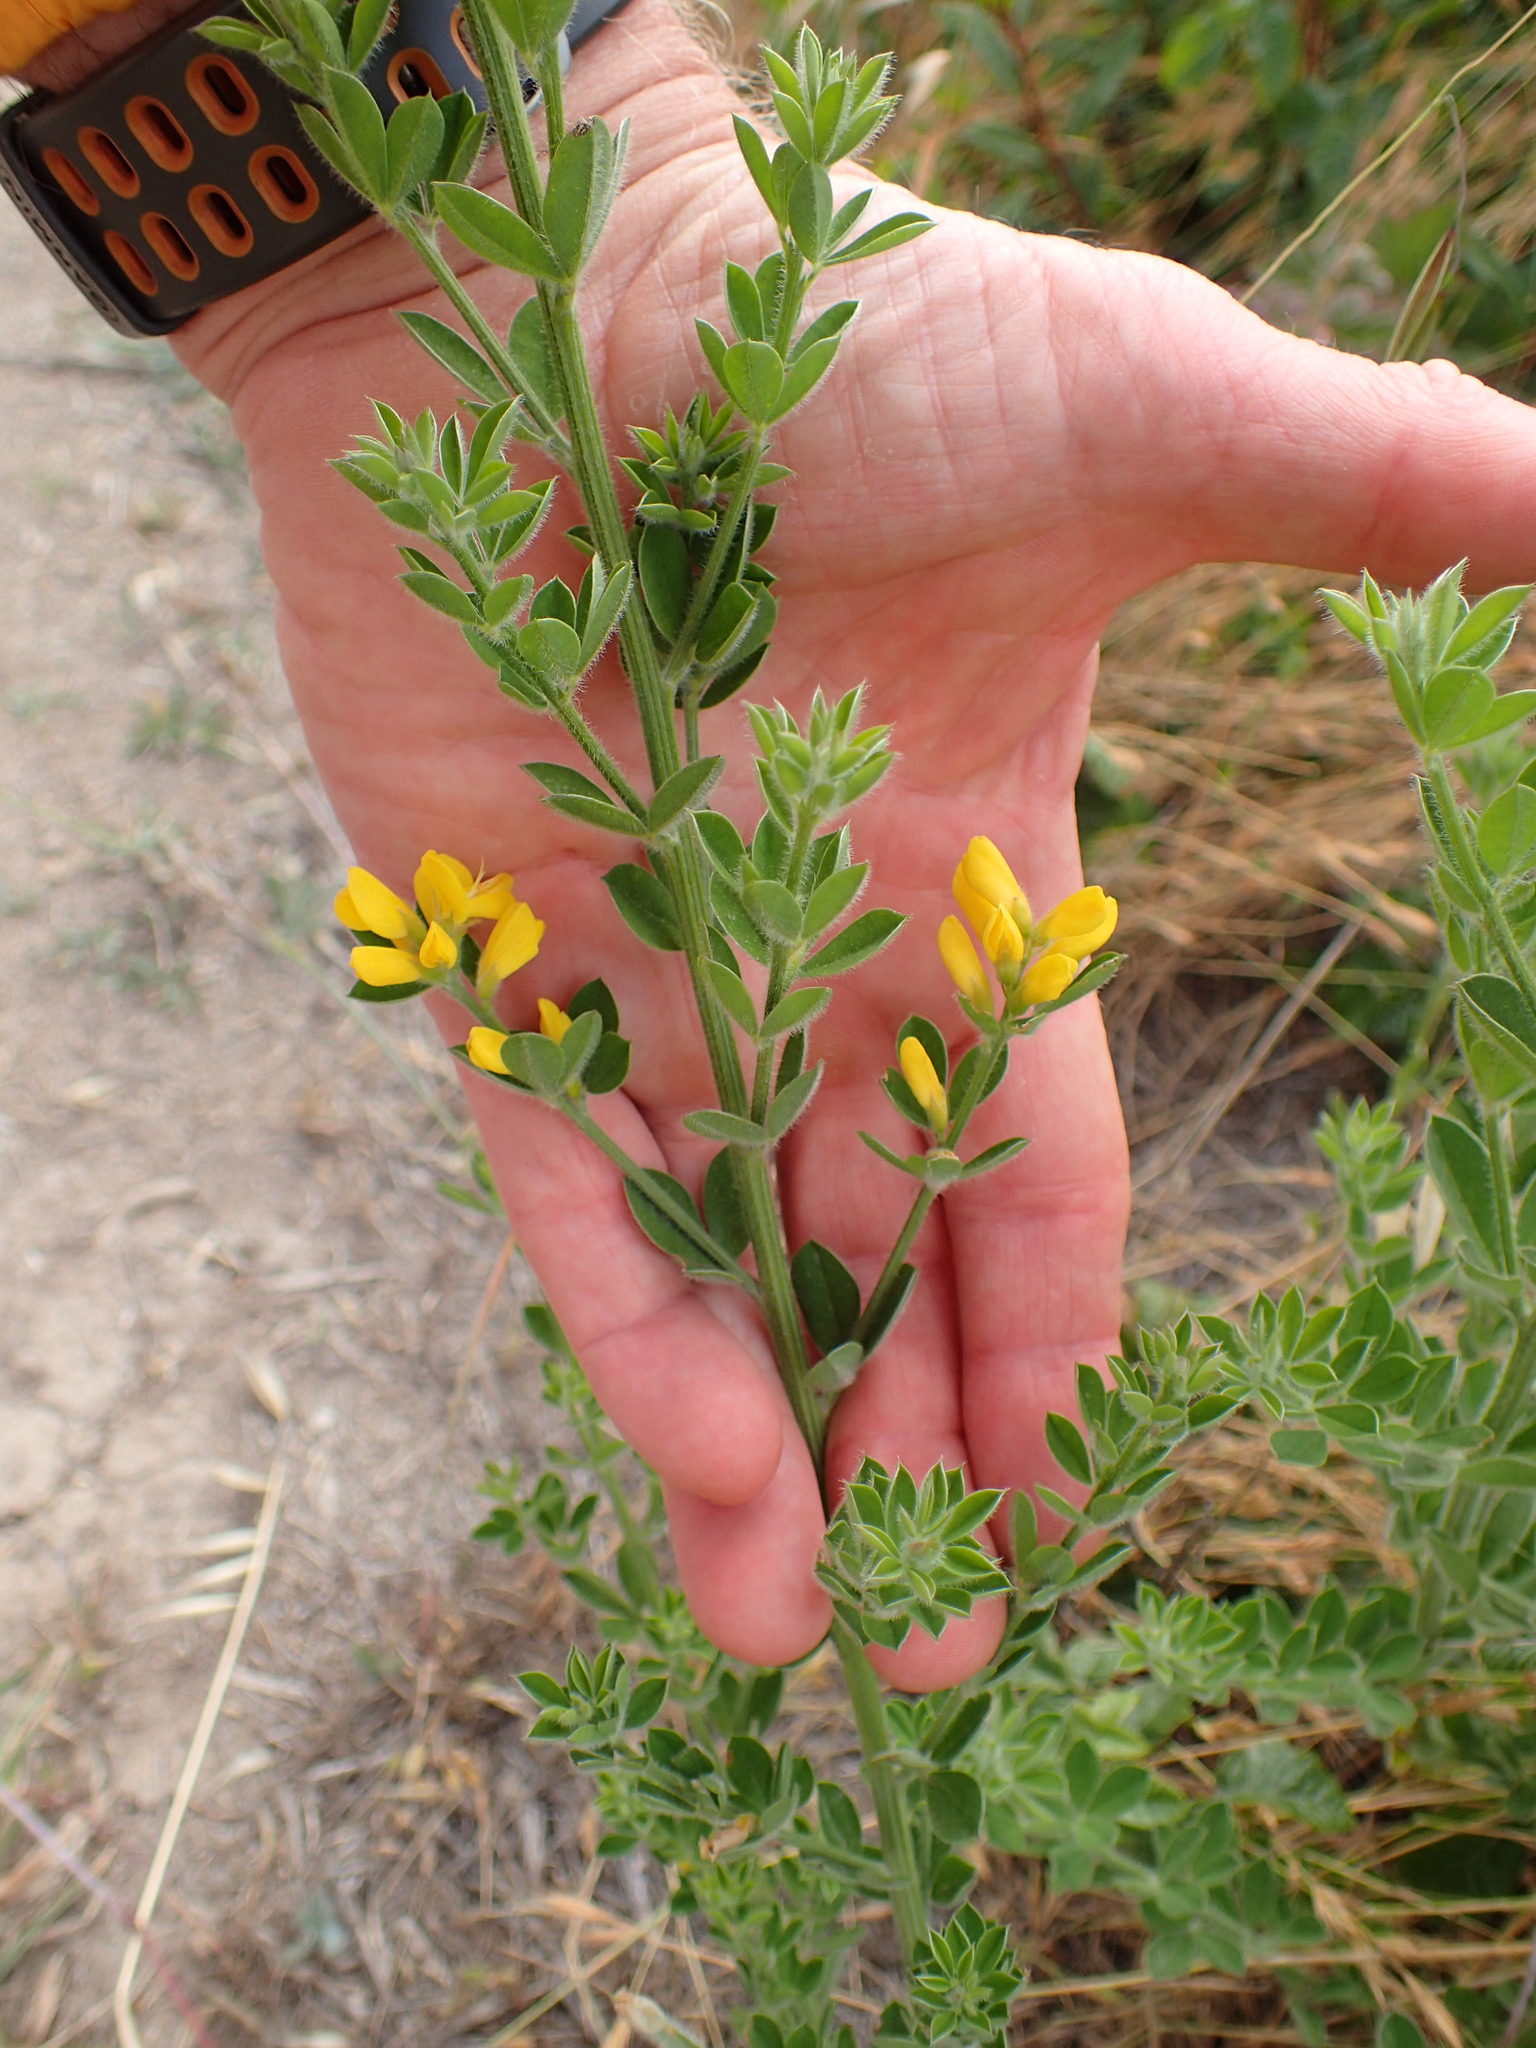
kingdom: Plantae
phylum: Tracheophyta
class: Magnoliopsida
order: Fabales
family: Fabaceae
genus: Genista
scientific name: Genista monspessulana
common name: Montpellier broom
